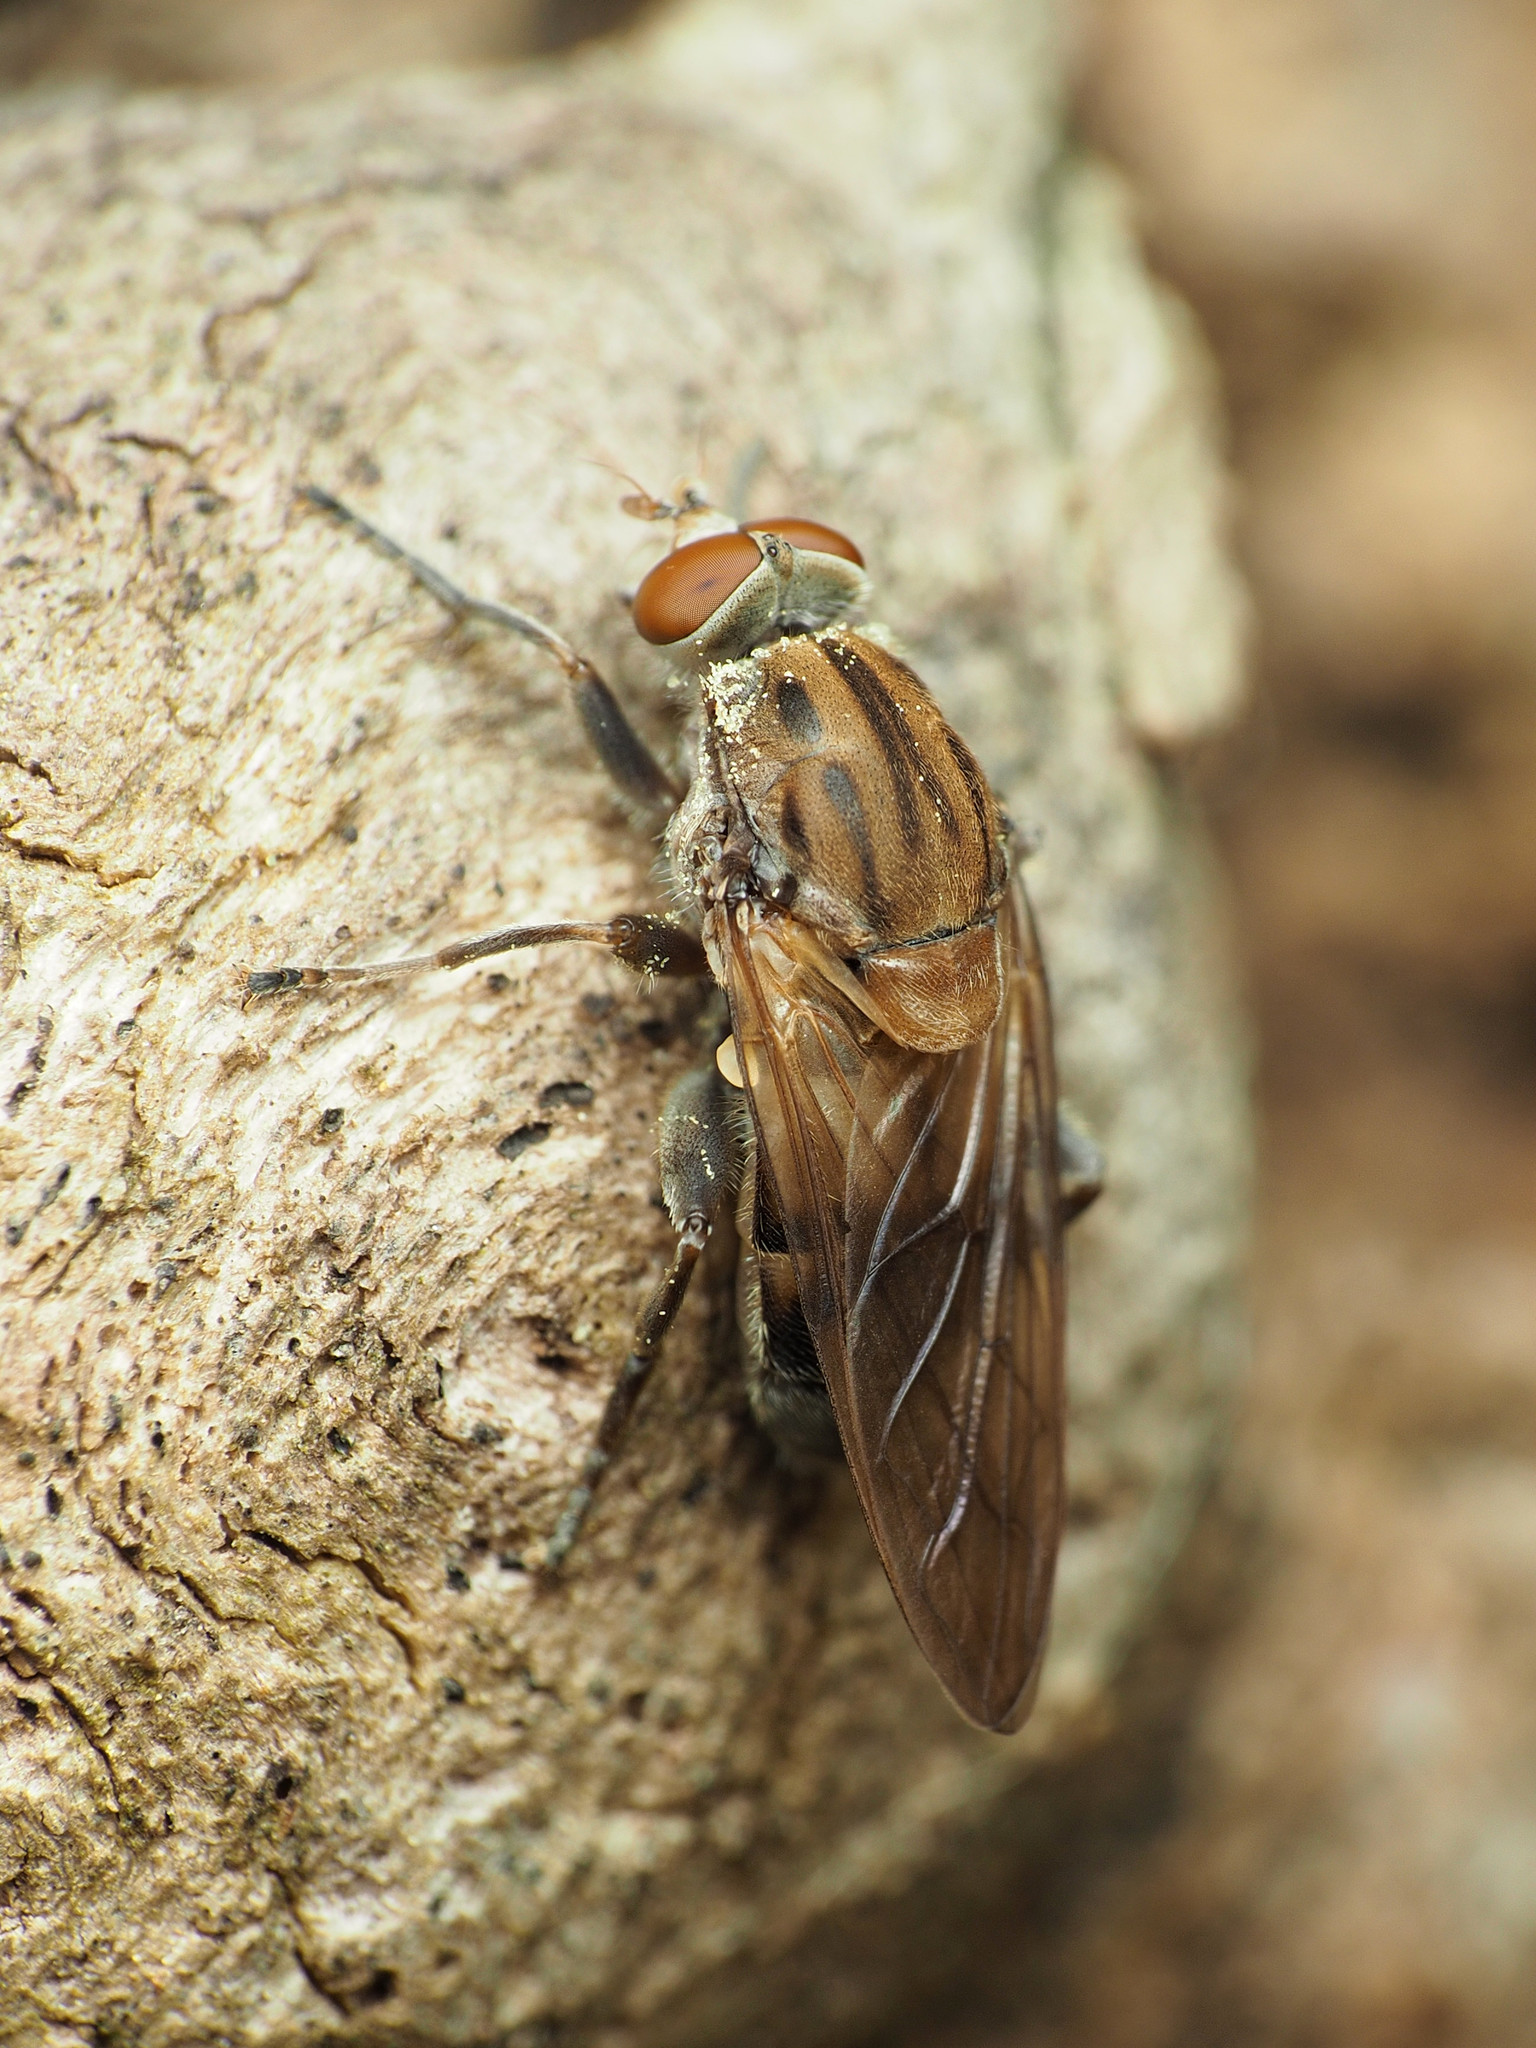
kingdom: Animalia
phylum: Arthropoda
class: Insecta
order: Diptera
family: Syrphidae
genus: Brachyopa
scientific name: Brachyopa vacua
